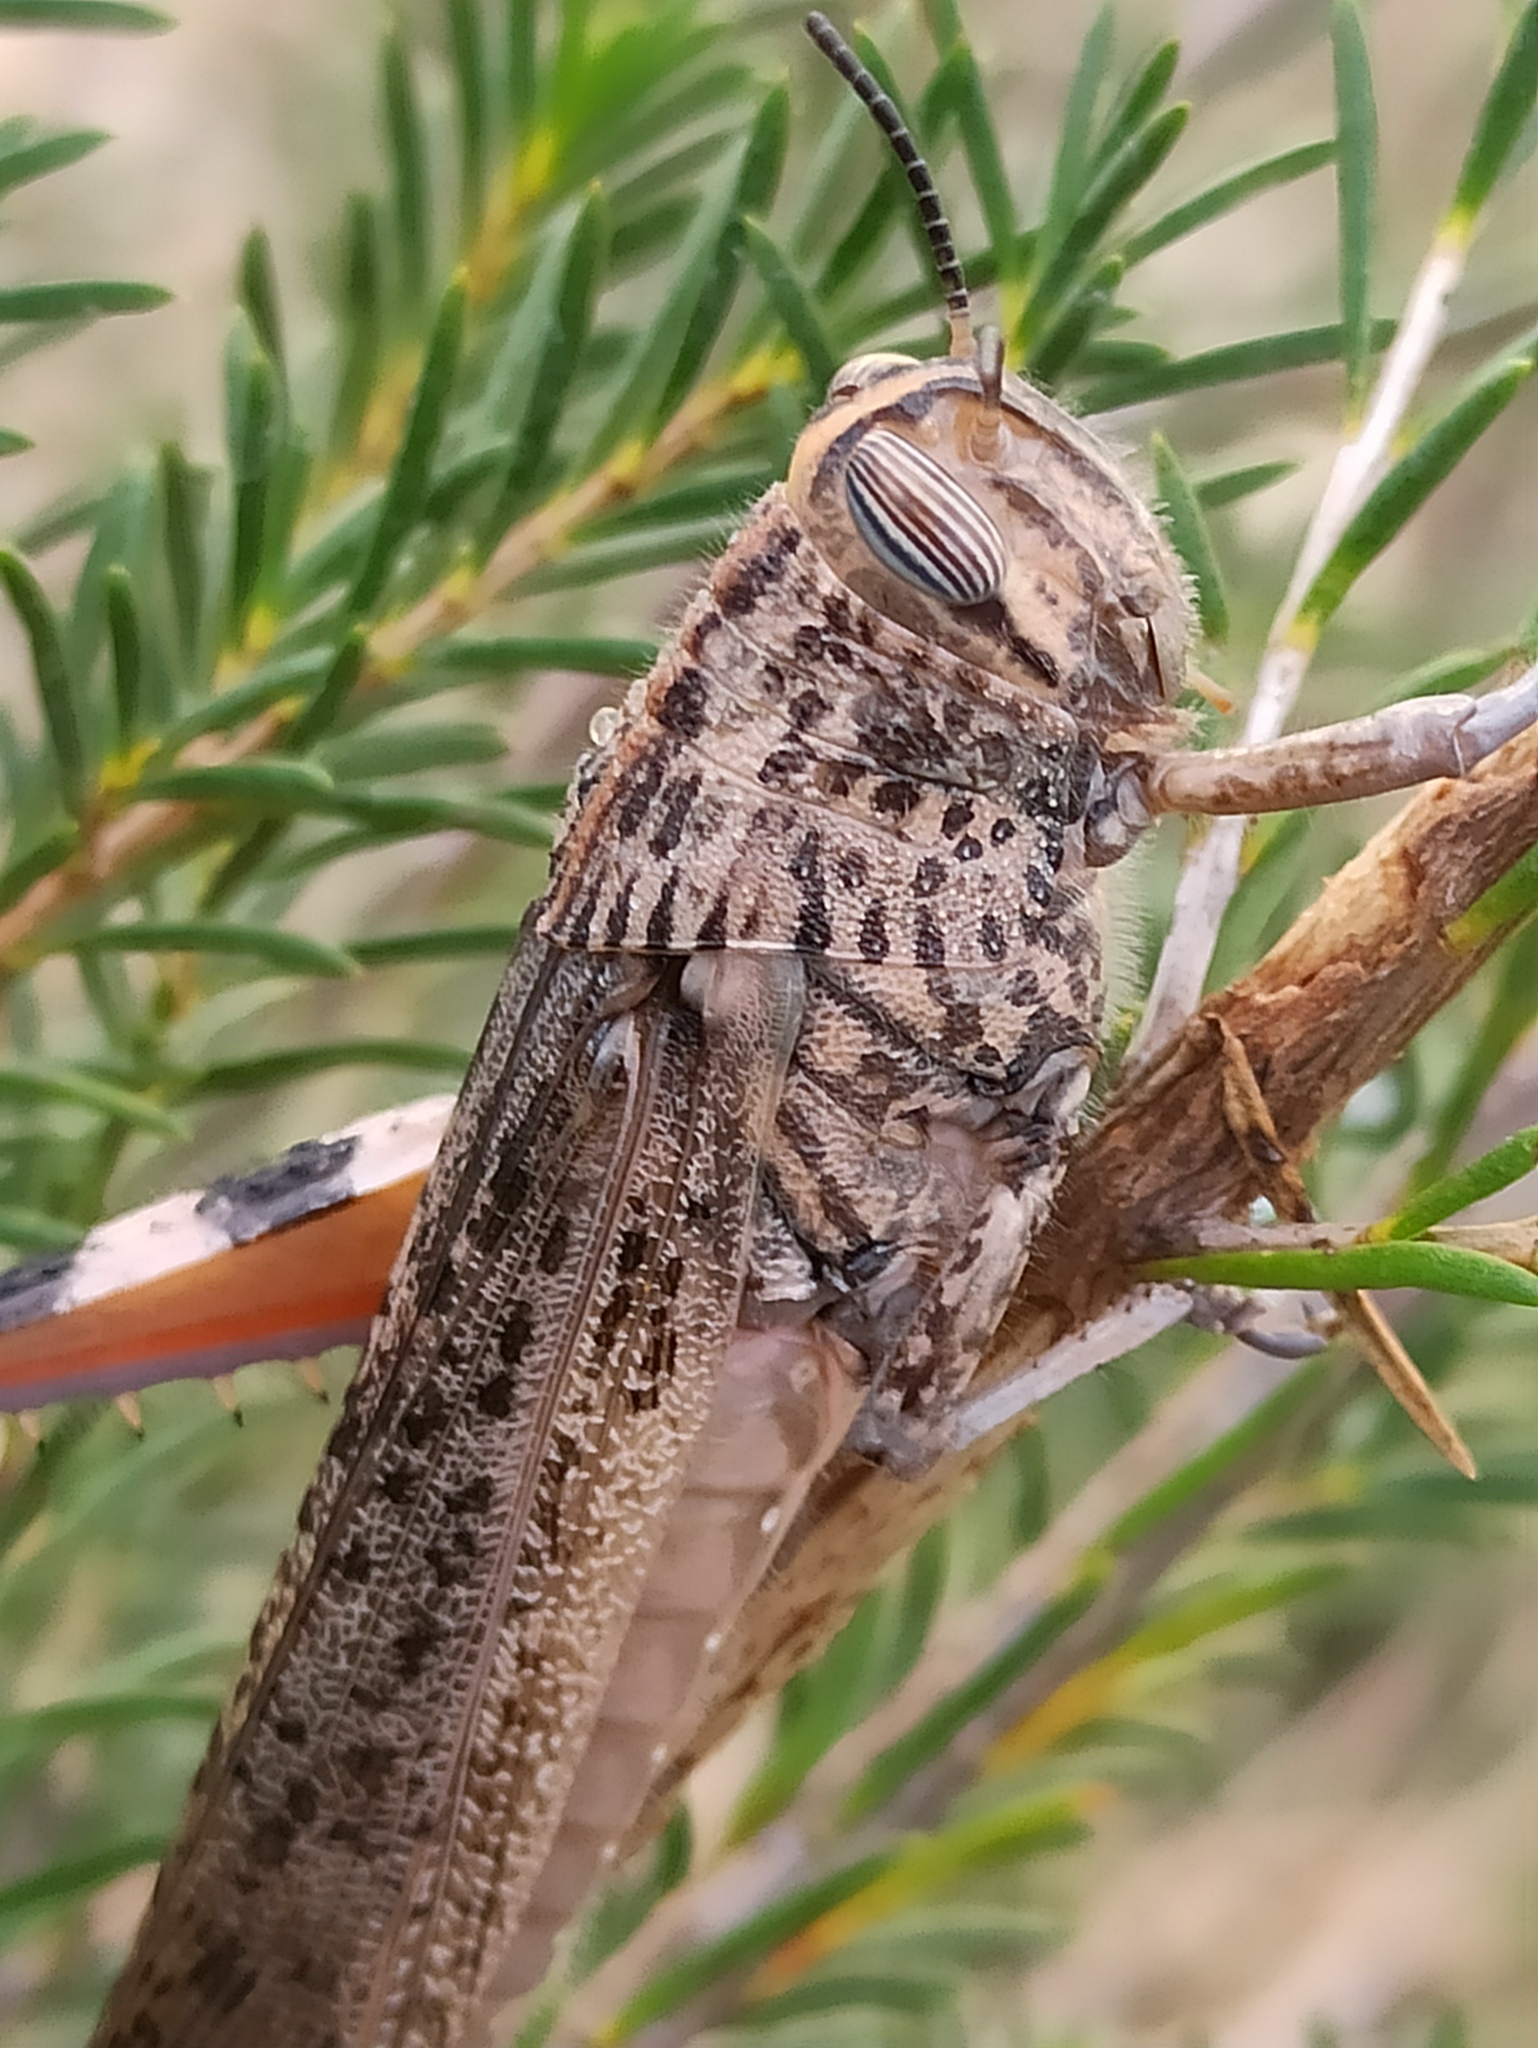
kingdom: Animalia
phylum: Arthropoda
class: Insecta
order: Orthoptera
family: Acrididae
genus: Anacridium
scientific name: Anacridium aegyptium
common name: Egyptian grasshopper
